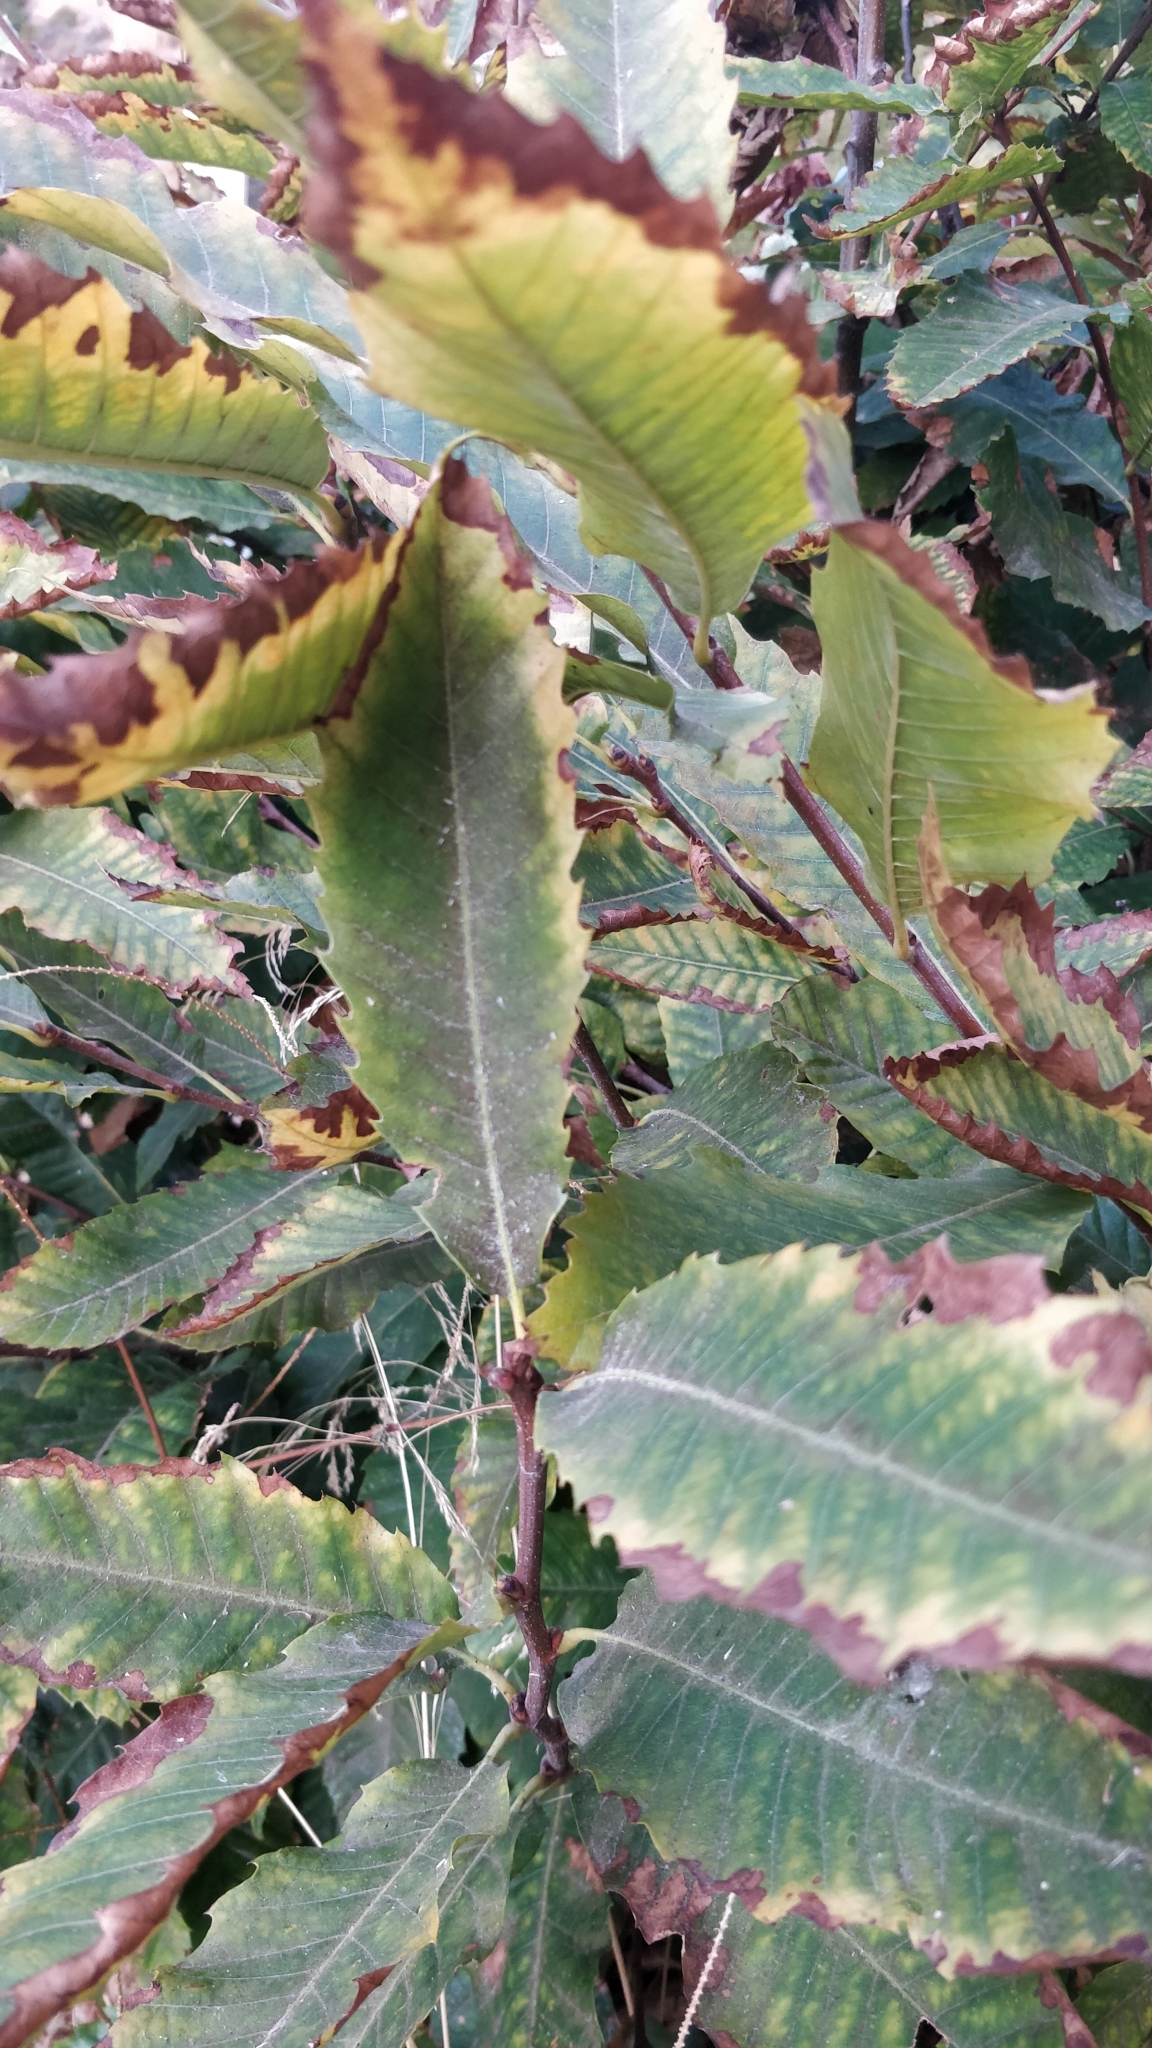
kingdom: Plantae
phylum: Tracheophyta
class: Magnoliopsida
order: Fagales
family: Fagaceae
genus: Castanea
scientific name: Castanea sativa
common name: Sweet chestnut
